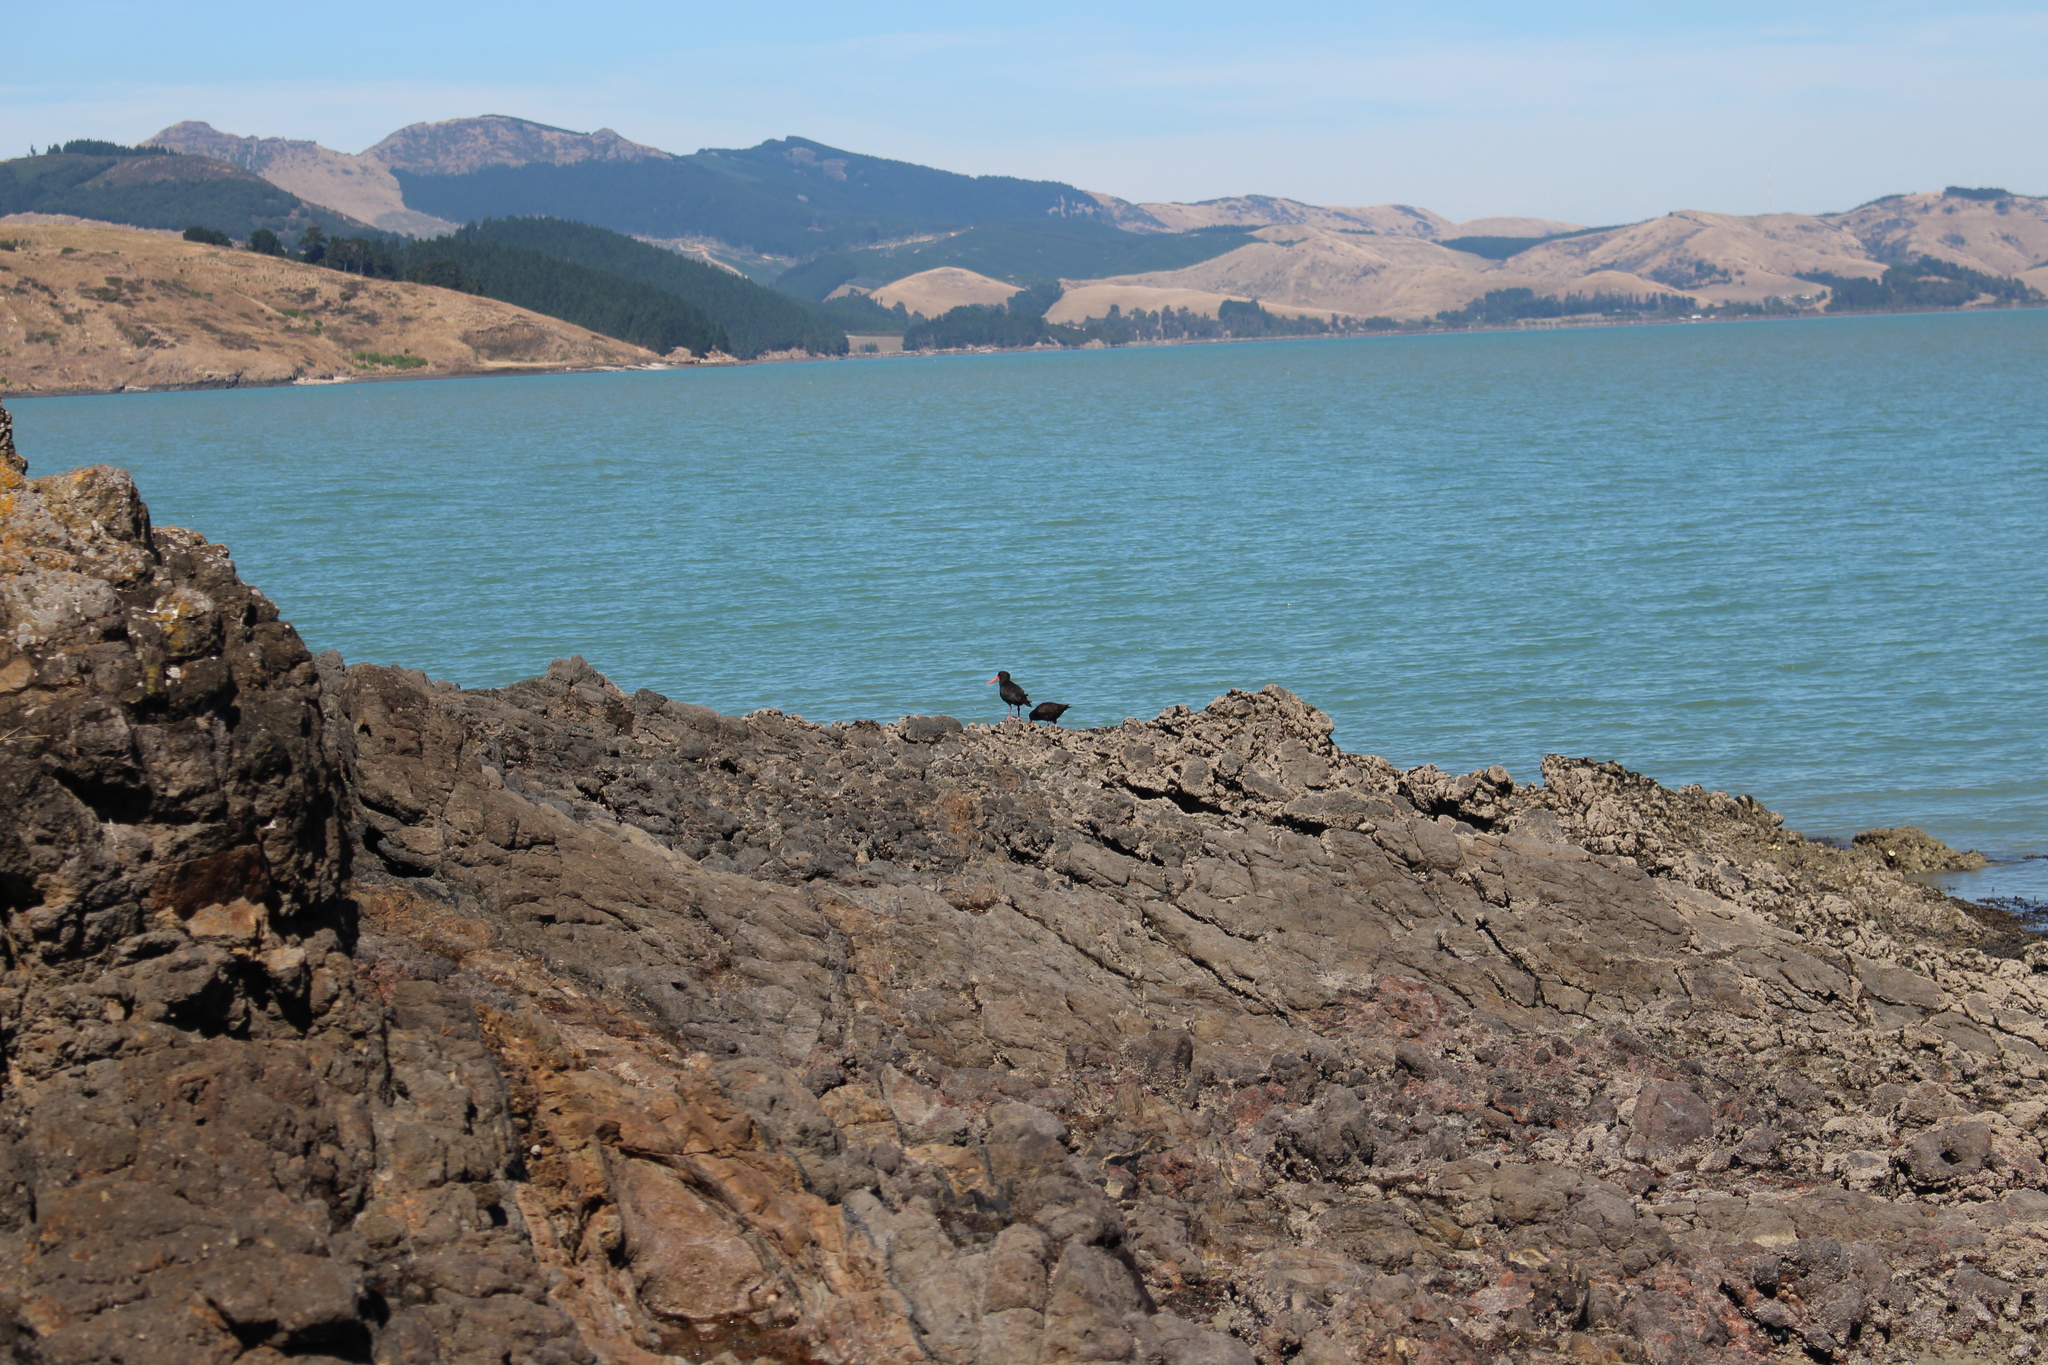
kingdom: Animalia
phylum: Chordata
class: Aves
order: Charadriiformes
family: Haematopodidae
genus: Haematopus
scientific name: Haematopus unicolor
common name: Variable oystercatcher
